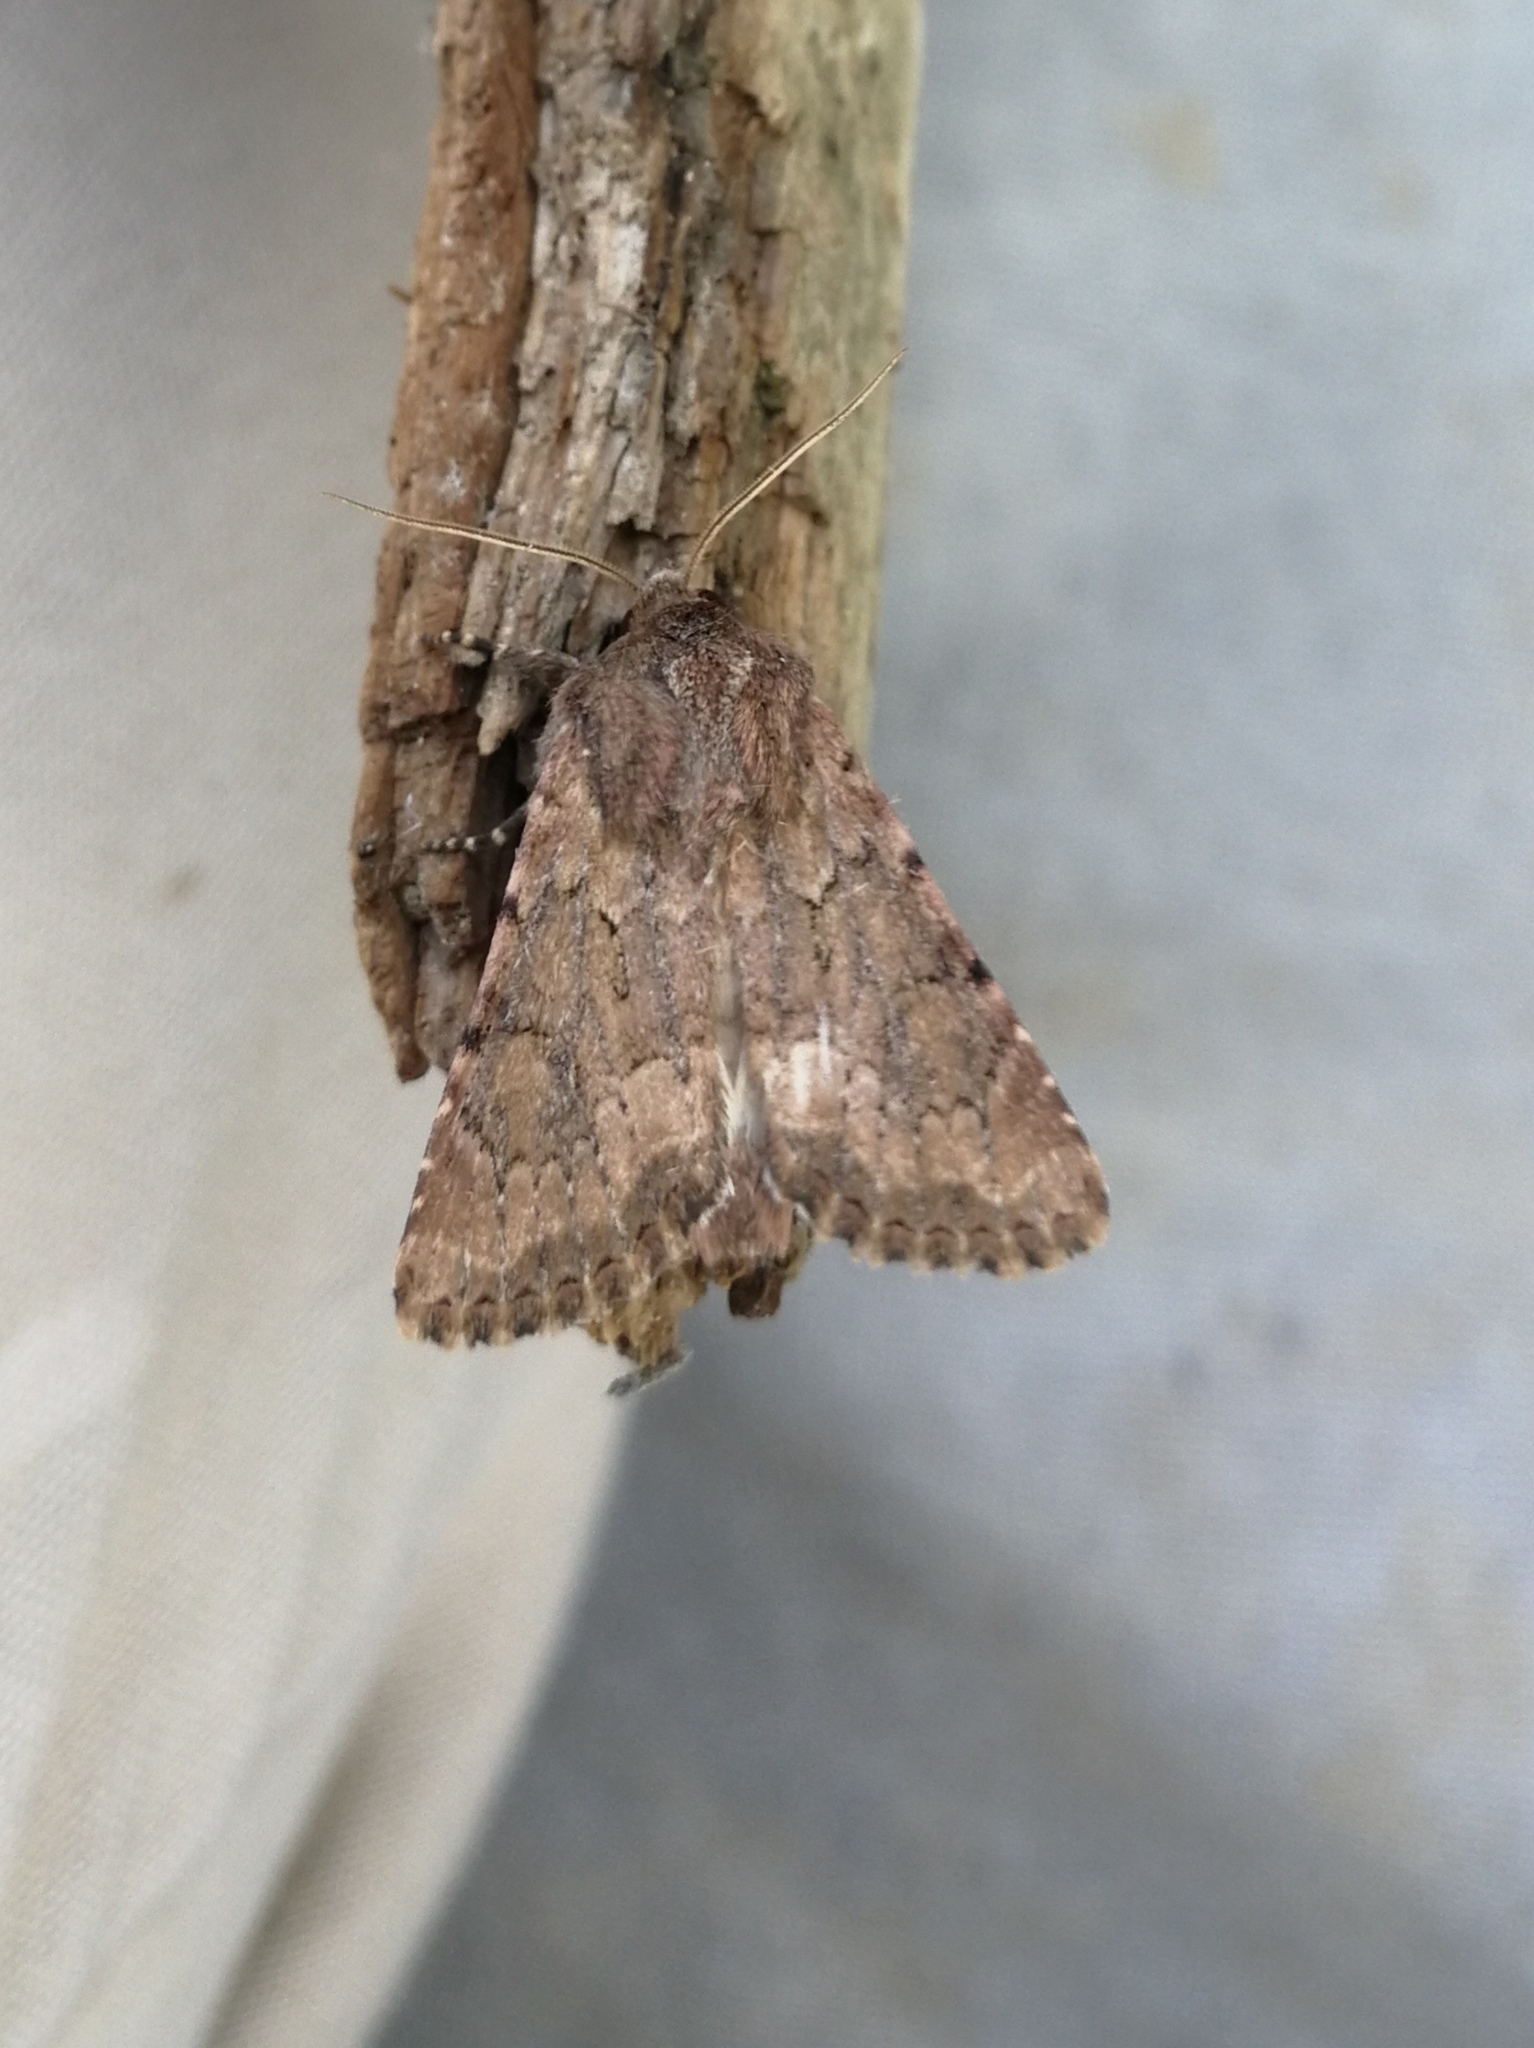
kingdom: Animalia
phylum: Arthropoda
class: Insecta
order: Lepidoptera
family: Noctuidae
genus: Luperina
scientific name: Luperina testacea
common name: Flounced rustic
